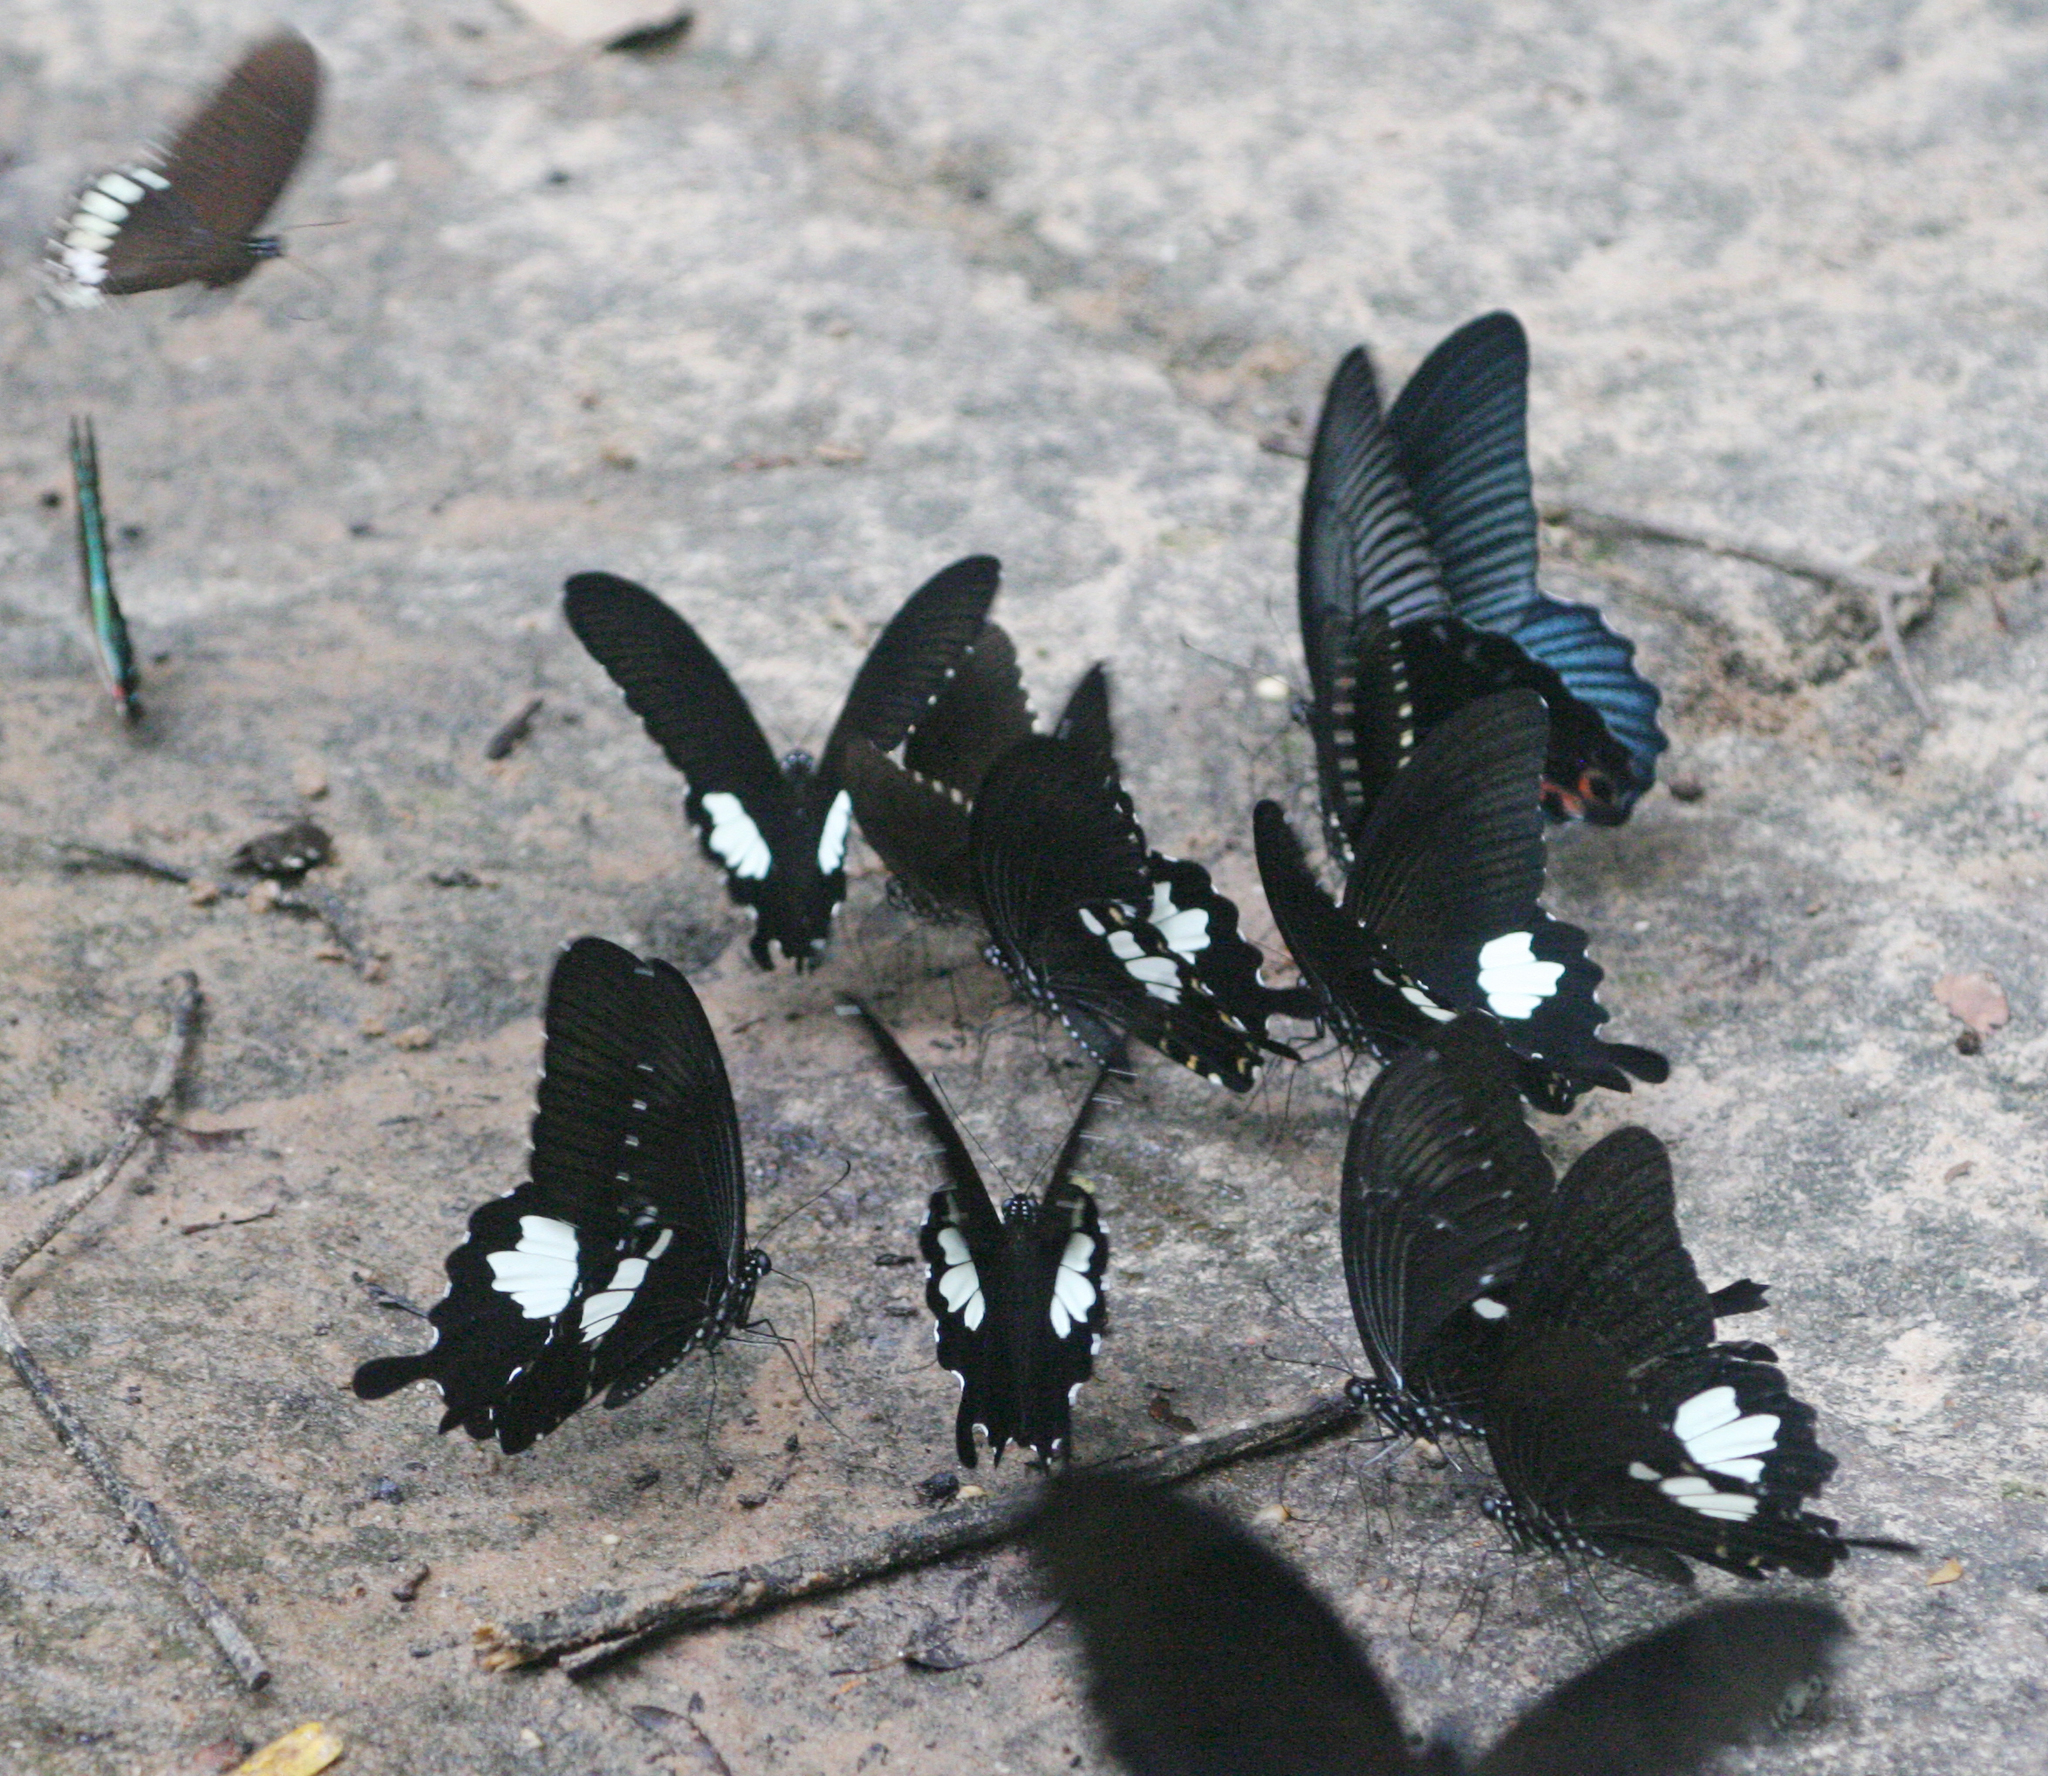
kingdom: Animalia
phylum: Arthropoda
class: Insecta
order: Lepidoptera
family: Papilionidae
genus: Papilio
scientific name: Papilio memnon
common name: Great mormon
